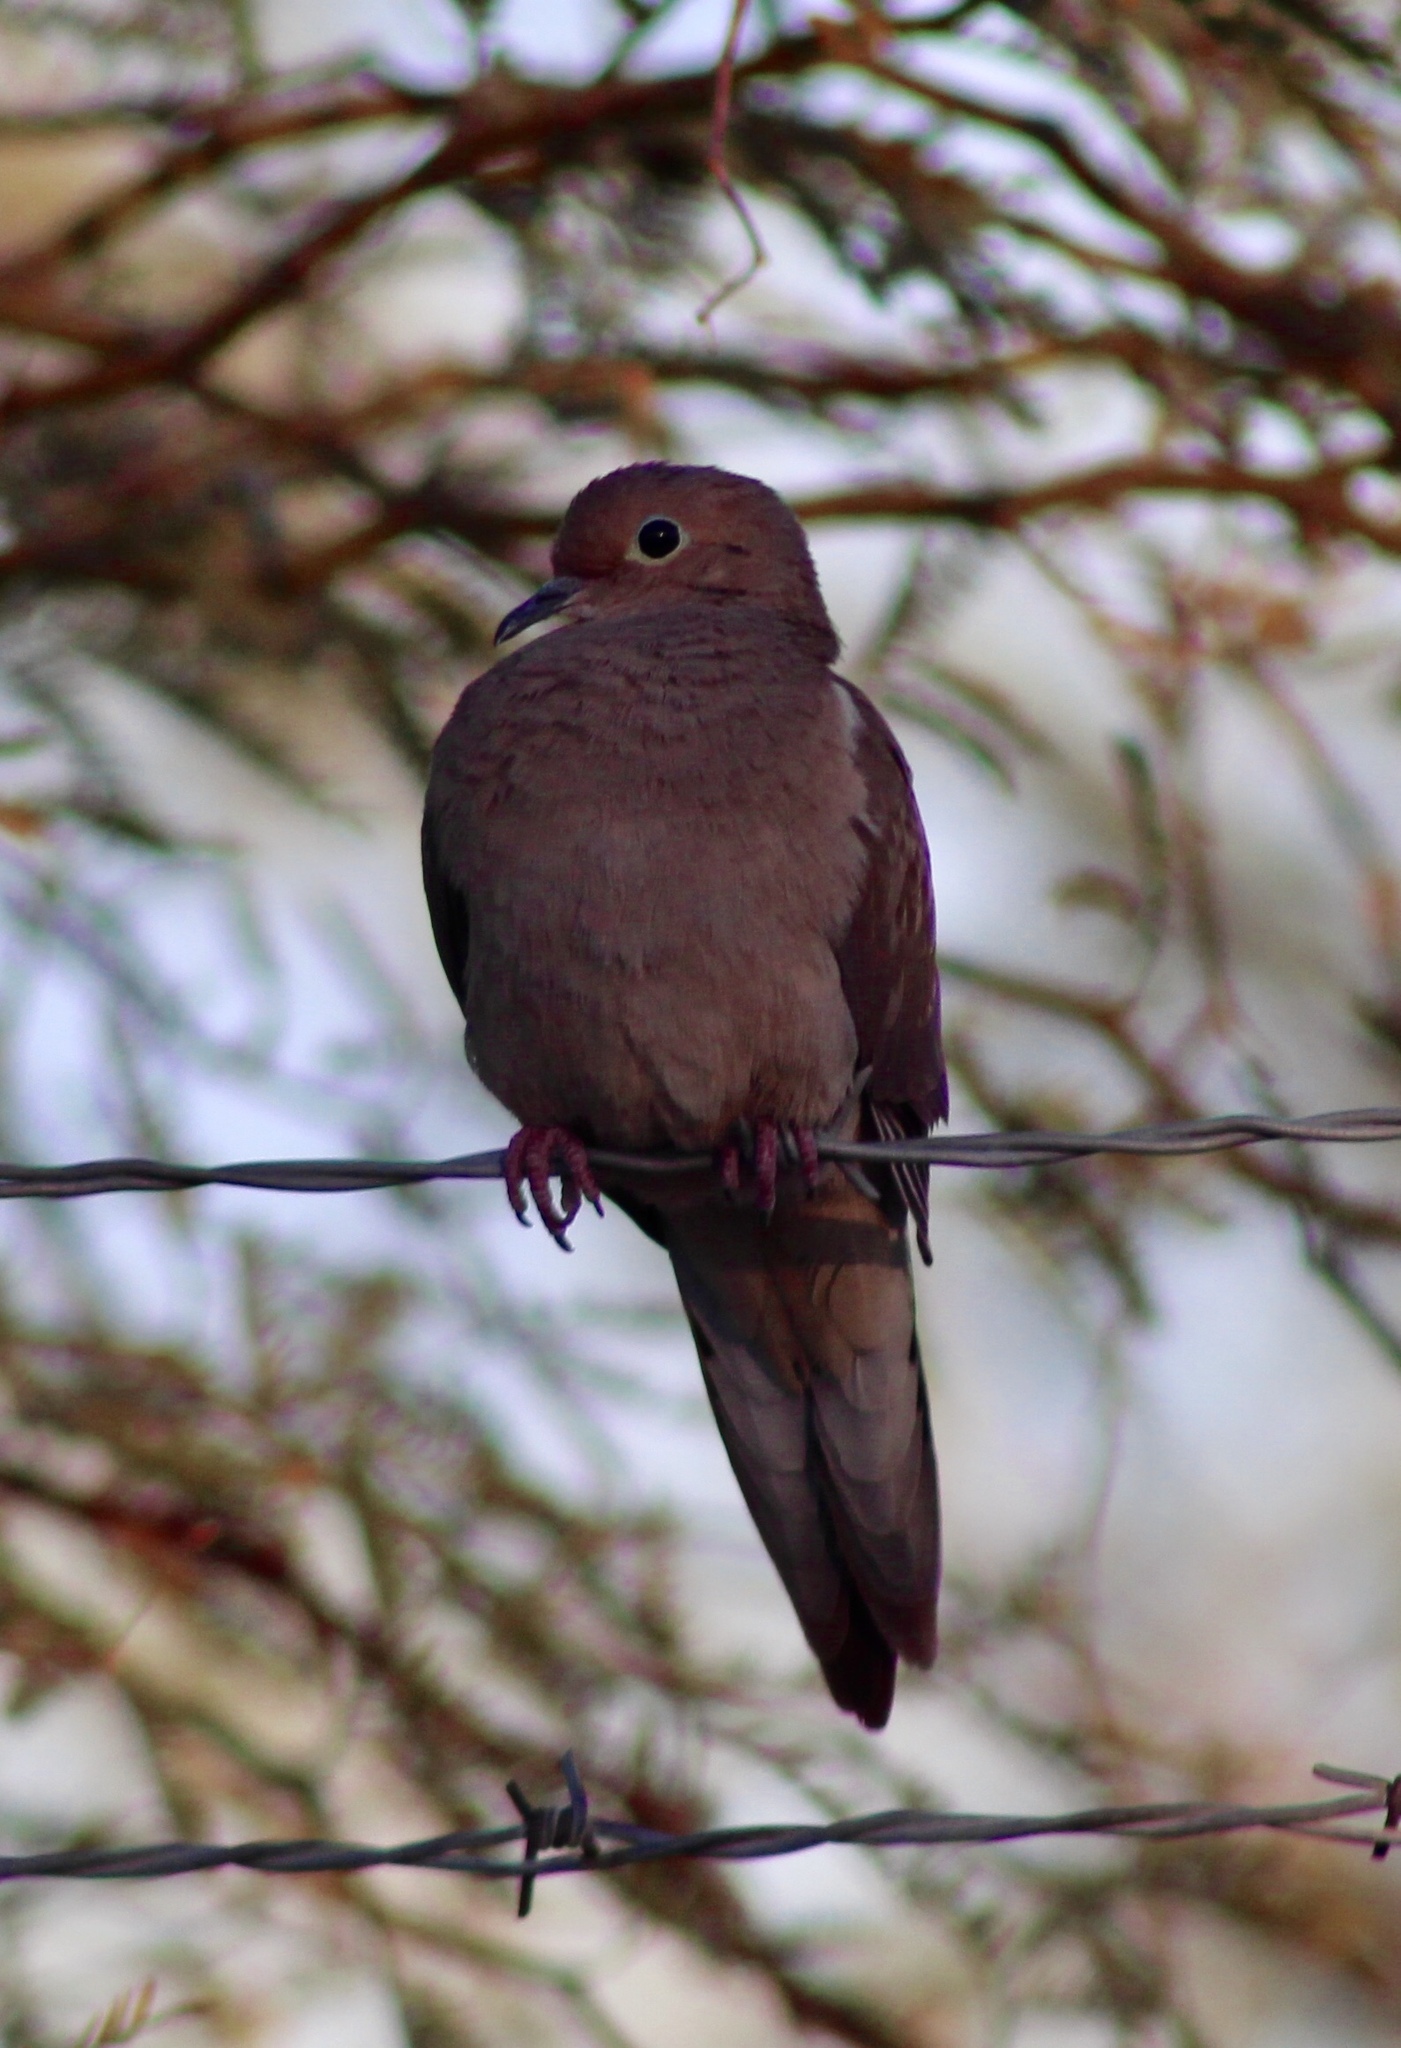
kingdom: Animalia
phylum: Chordata
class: Aves
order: Columbiformes
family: Columbidae
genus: Zenaida
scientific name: Zenaida macroura
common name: Mourning dove
